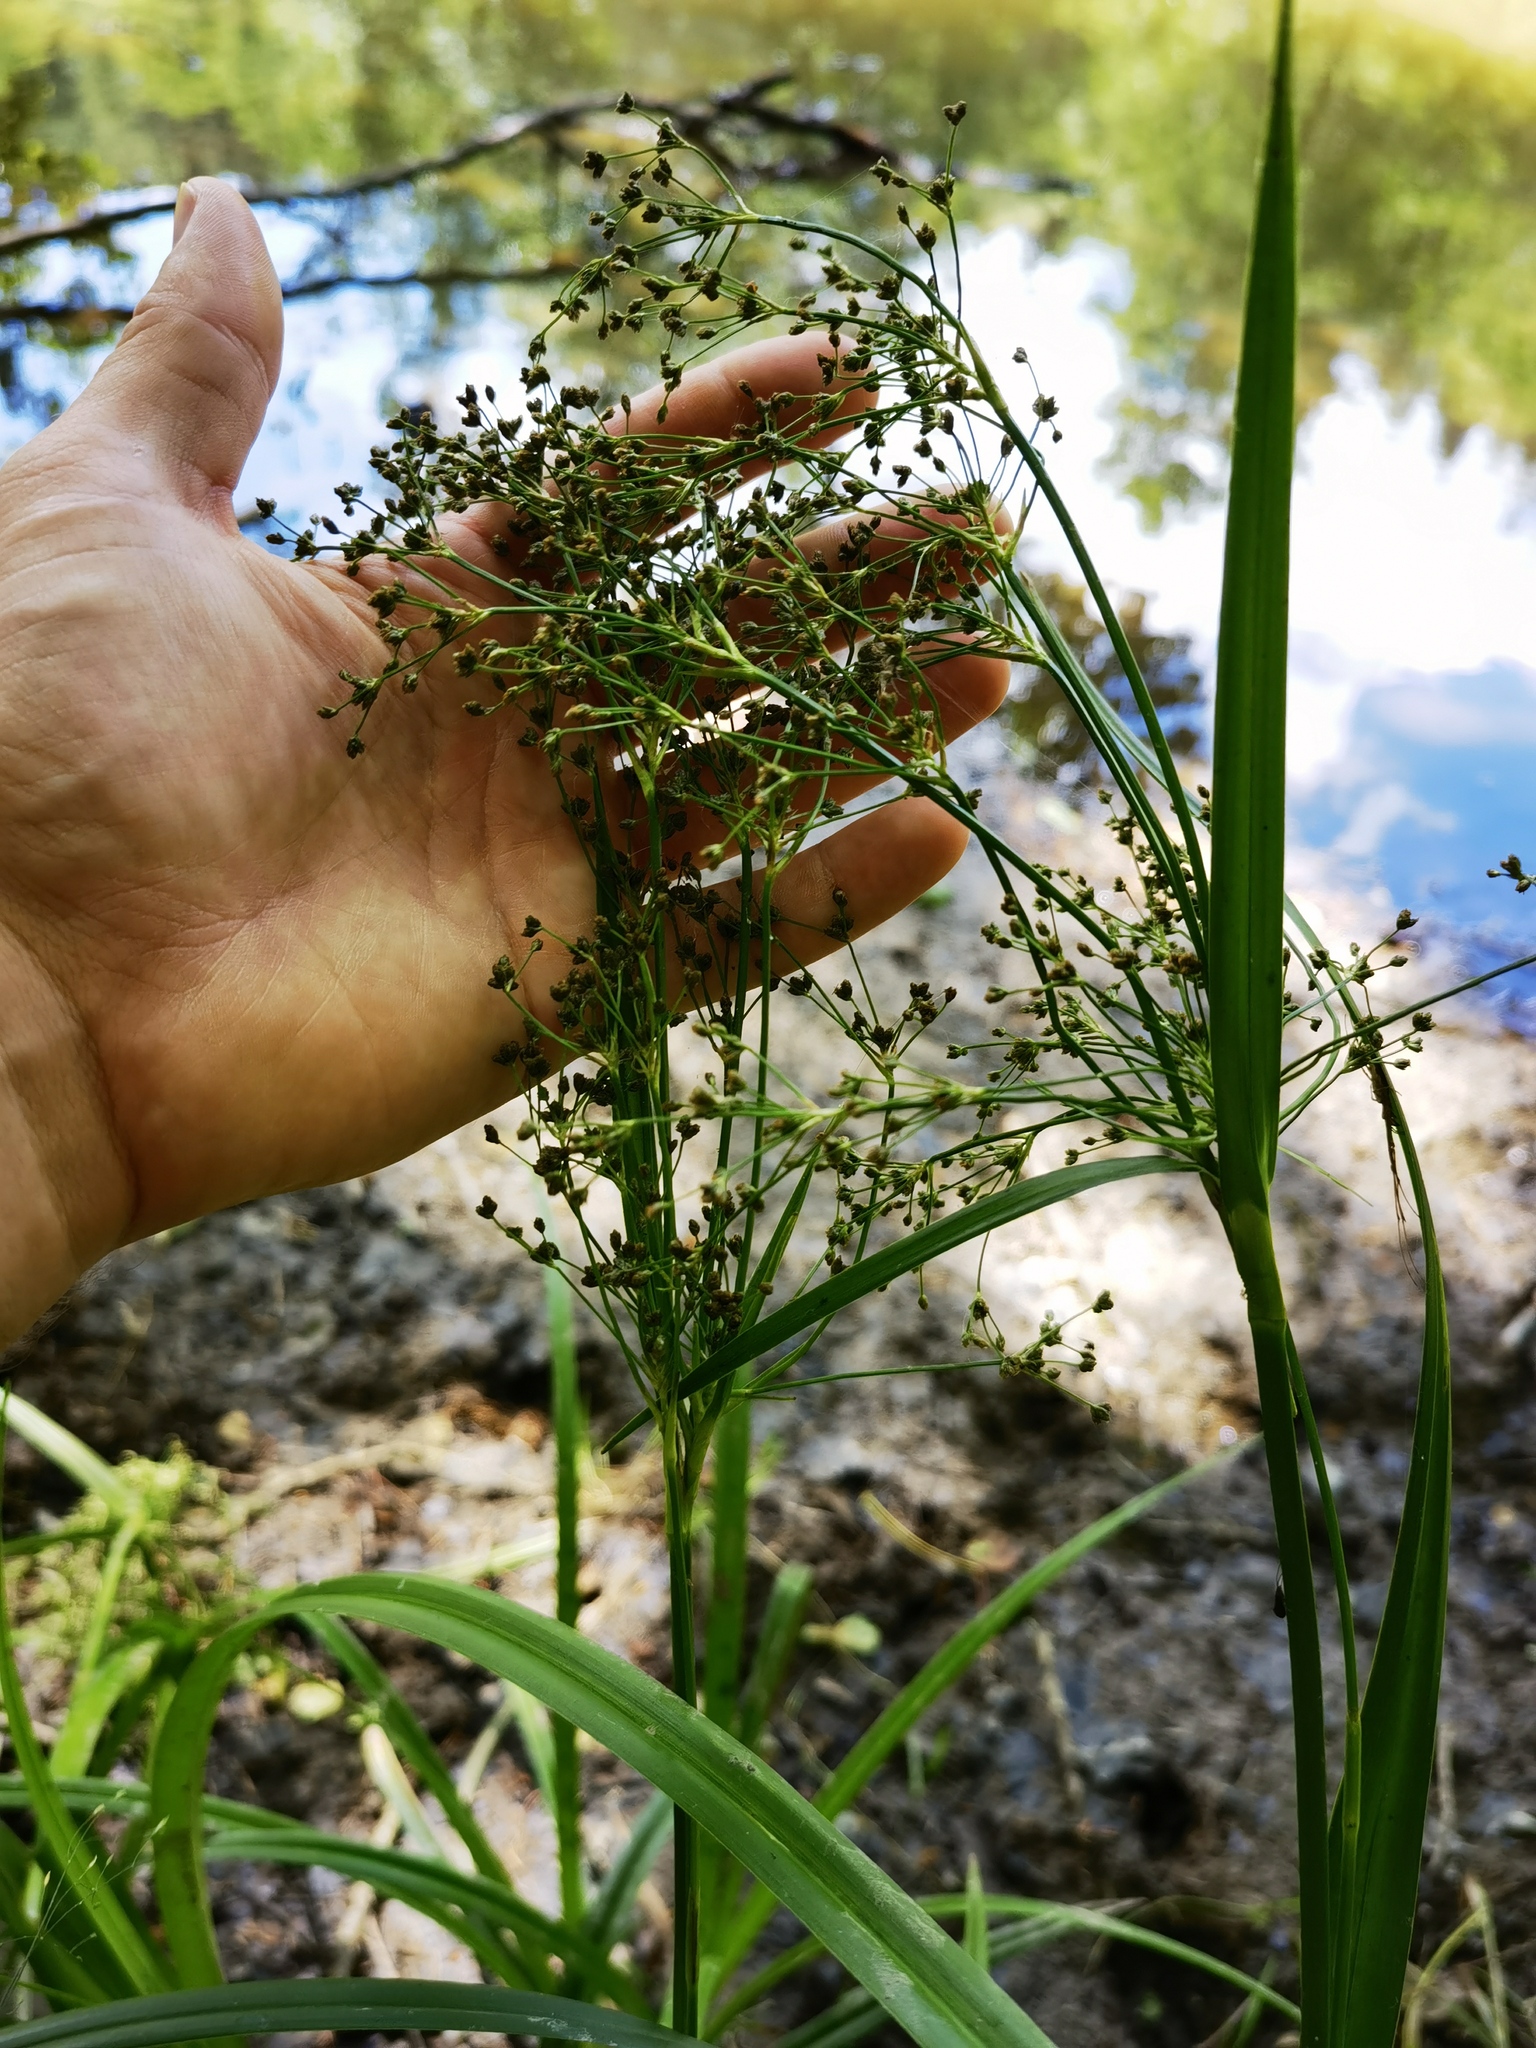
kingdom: Plantae
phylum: Tracheophyta
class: Liliopsida
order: Poales
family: Cyperaceae
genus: Scirpus
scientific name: Scirpus sylvaticus
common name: Wood club-rush
